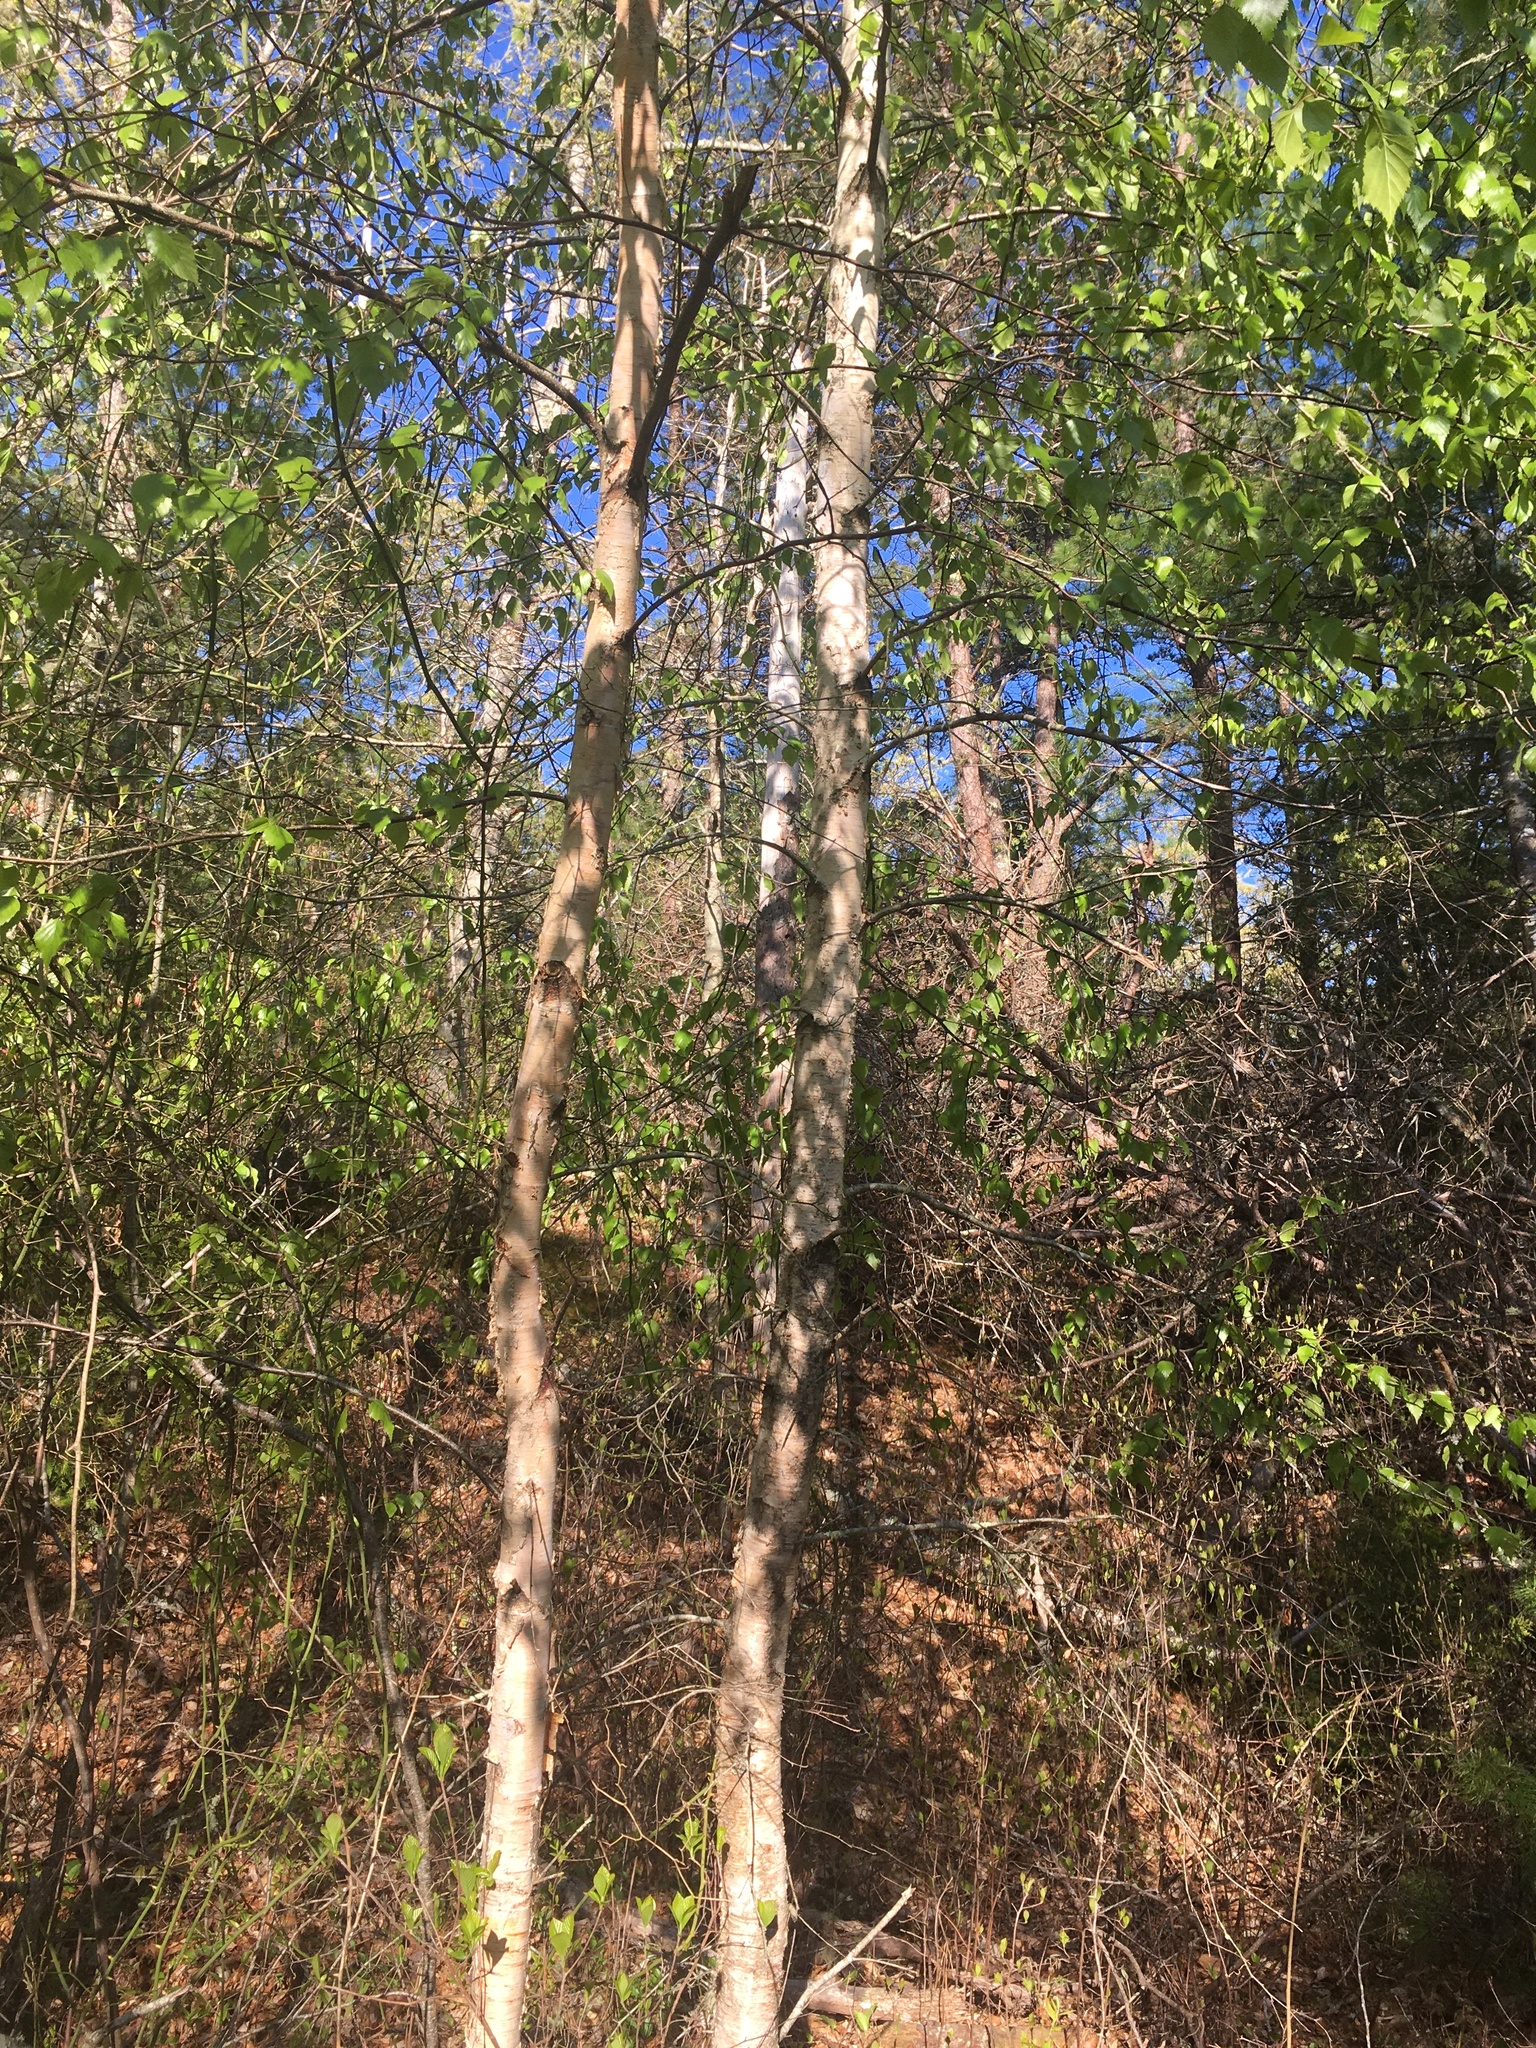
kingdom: Plantae
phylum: Tracheophyta
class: Magnoliopsida
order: Fagales
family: Betulaceae
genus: Betula
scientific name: Betula populifolia
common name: Fire birch
